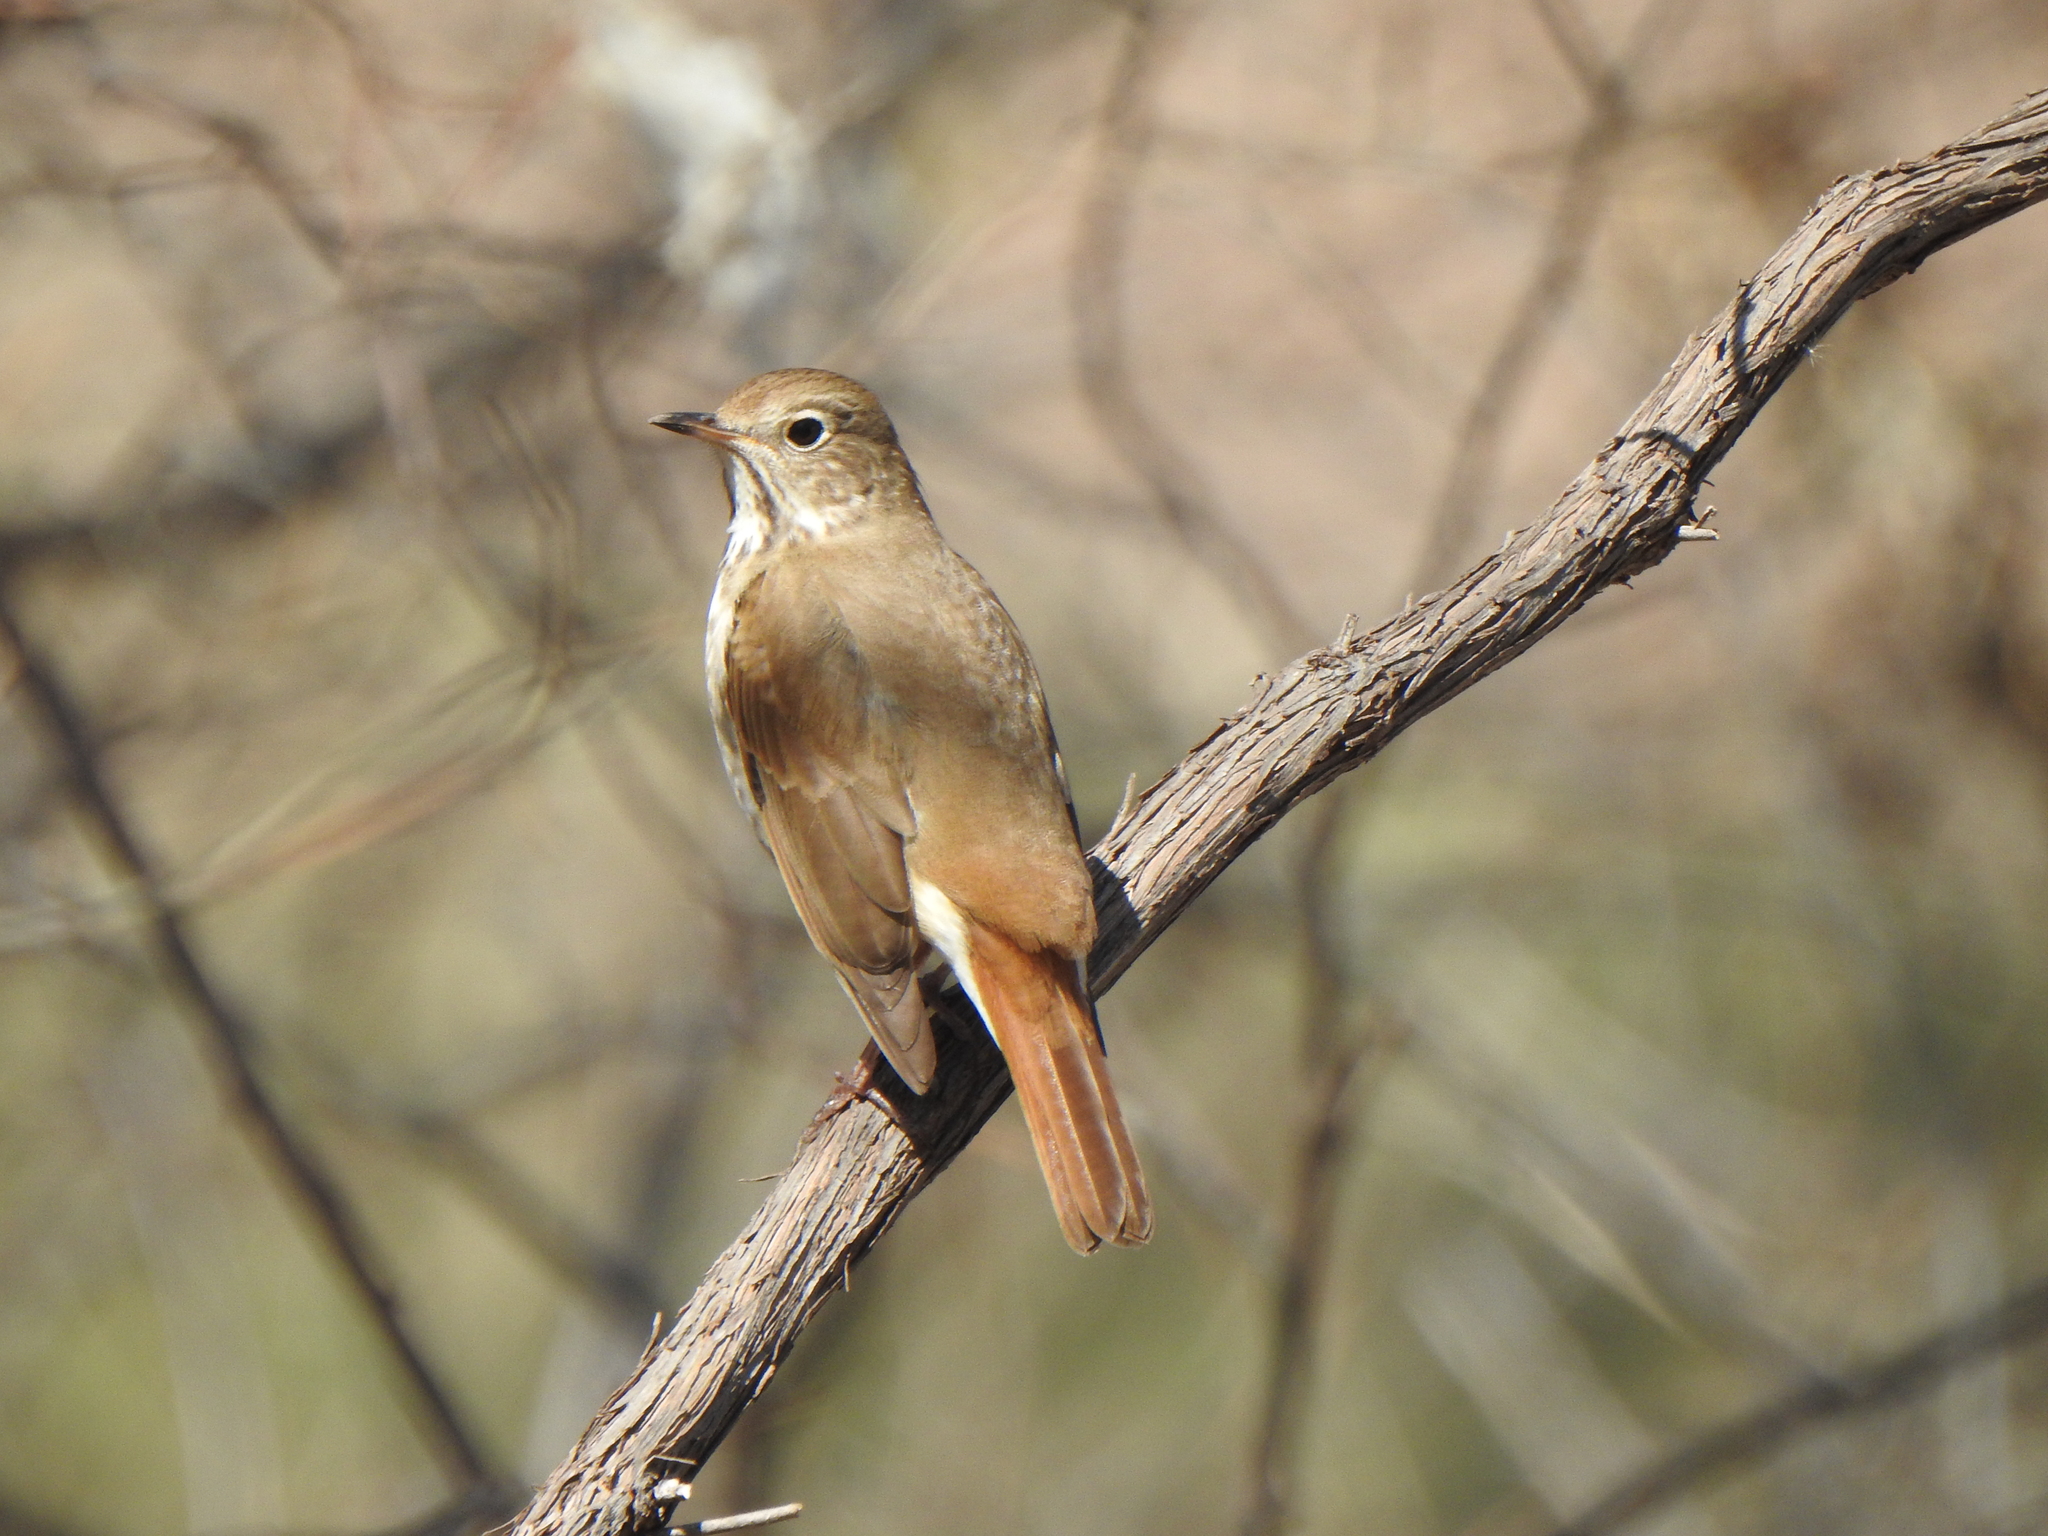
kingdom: Animalia
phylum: Chordata
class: Aves
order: Passeriformes
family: Turdidae
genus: Catharus
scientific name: Catharus guttatus
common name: Hermit thrush
